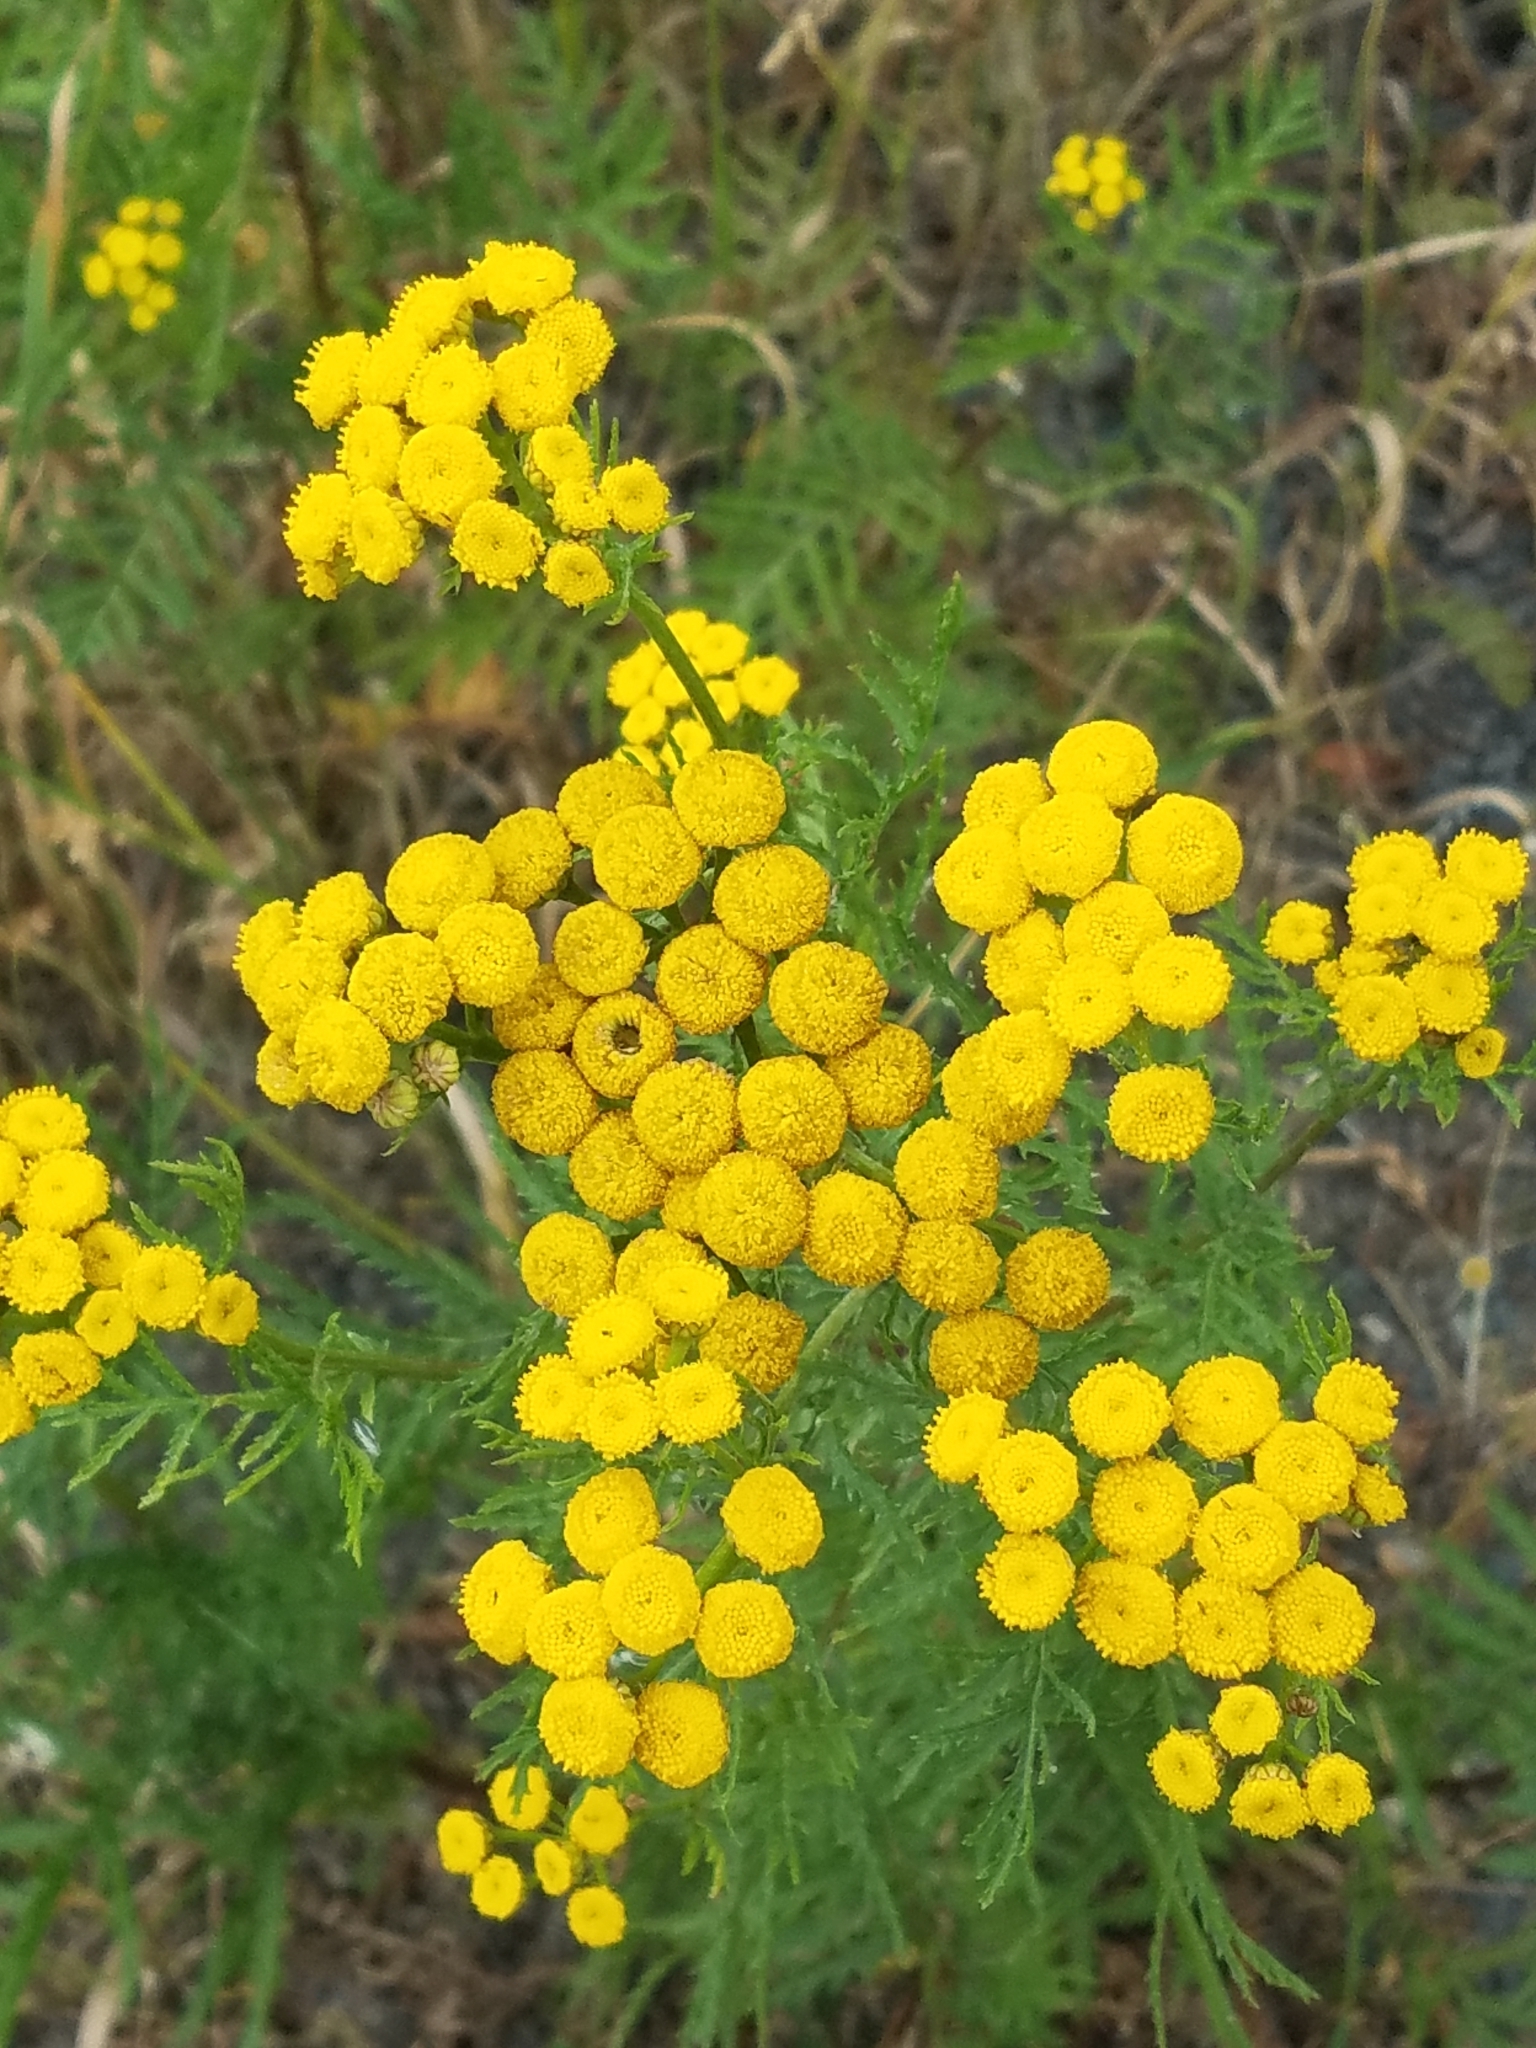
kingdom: Plantae
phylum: Tracheophyta
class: Magnoliopsida
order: Asterales
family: Asteraceae
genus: Tanacetum
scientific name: Tanacetum vulgare
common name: Common tansy
